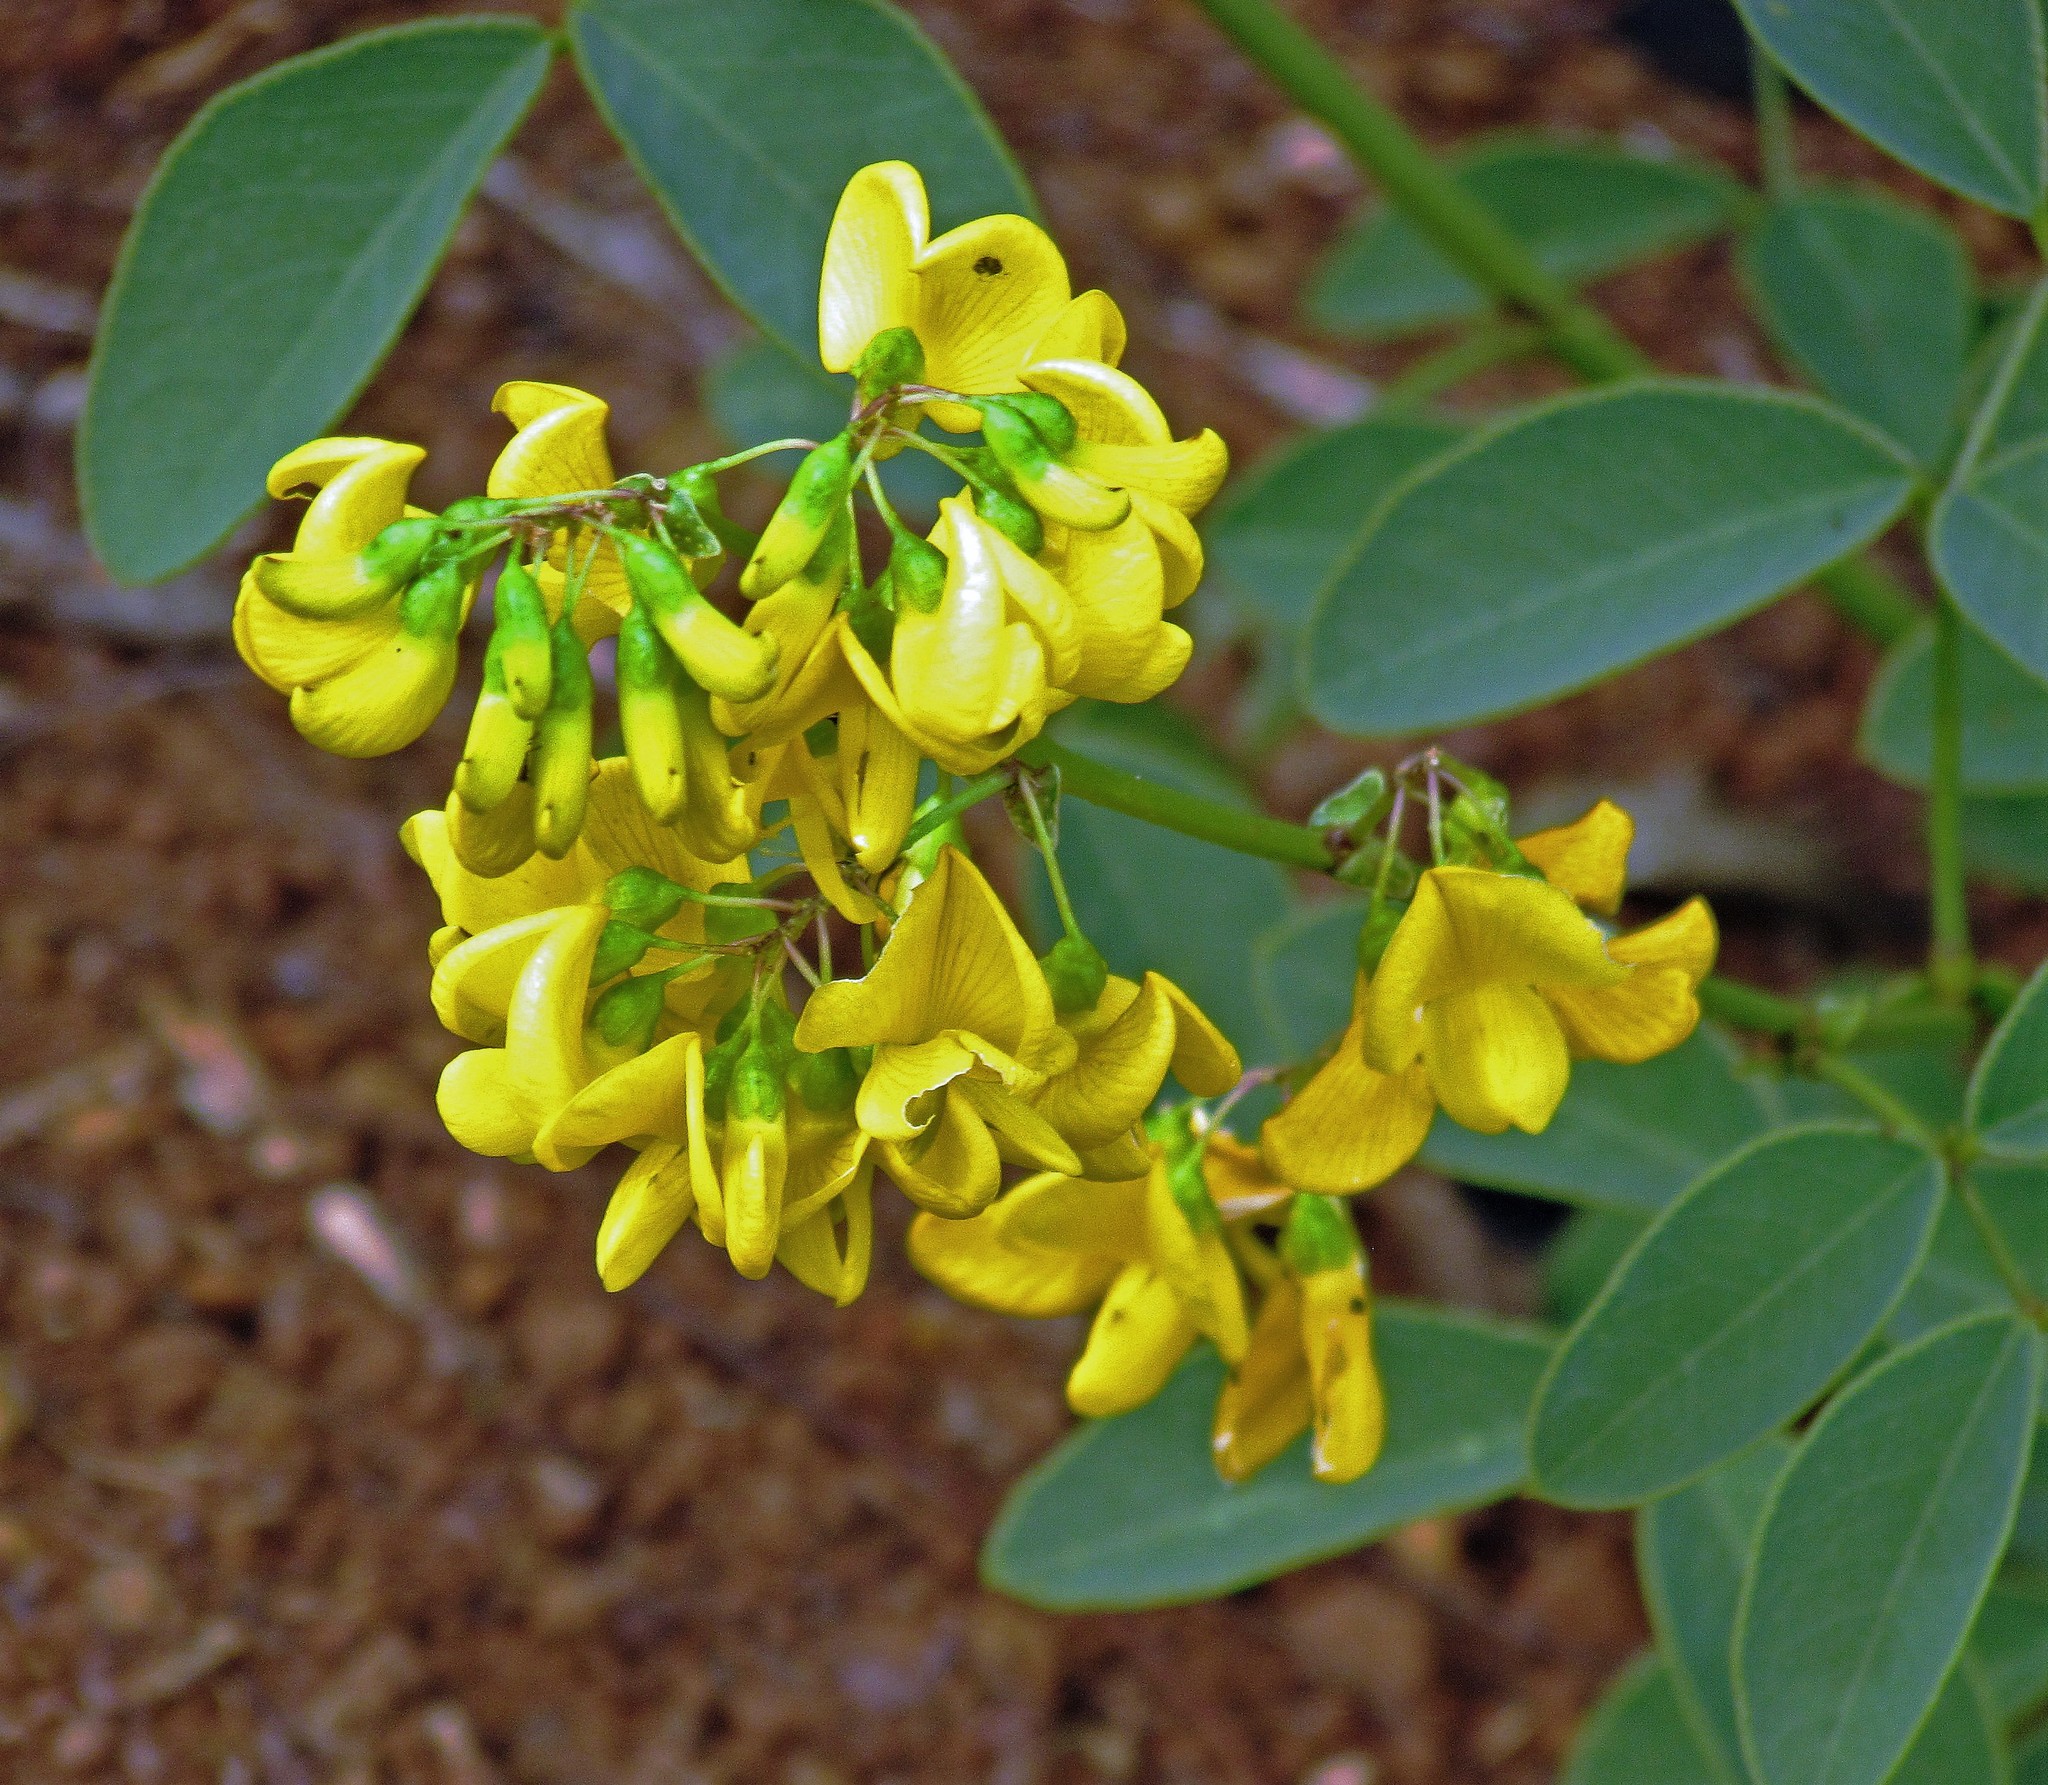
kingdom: Plantae
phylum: Tracheophyta
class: Magnoliopsida
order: Fabales
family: Fabaceae
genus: Poiretia
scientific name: Poiretia latifolia
